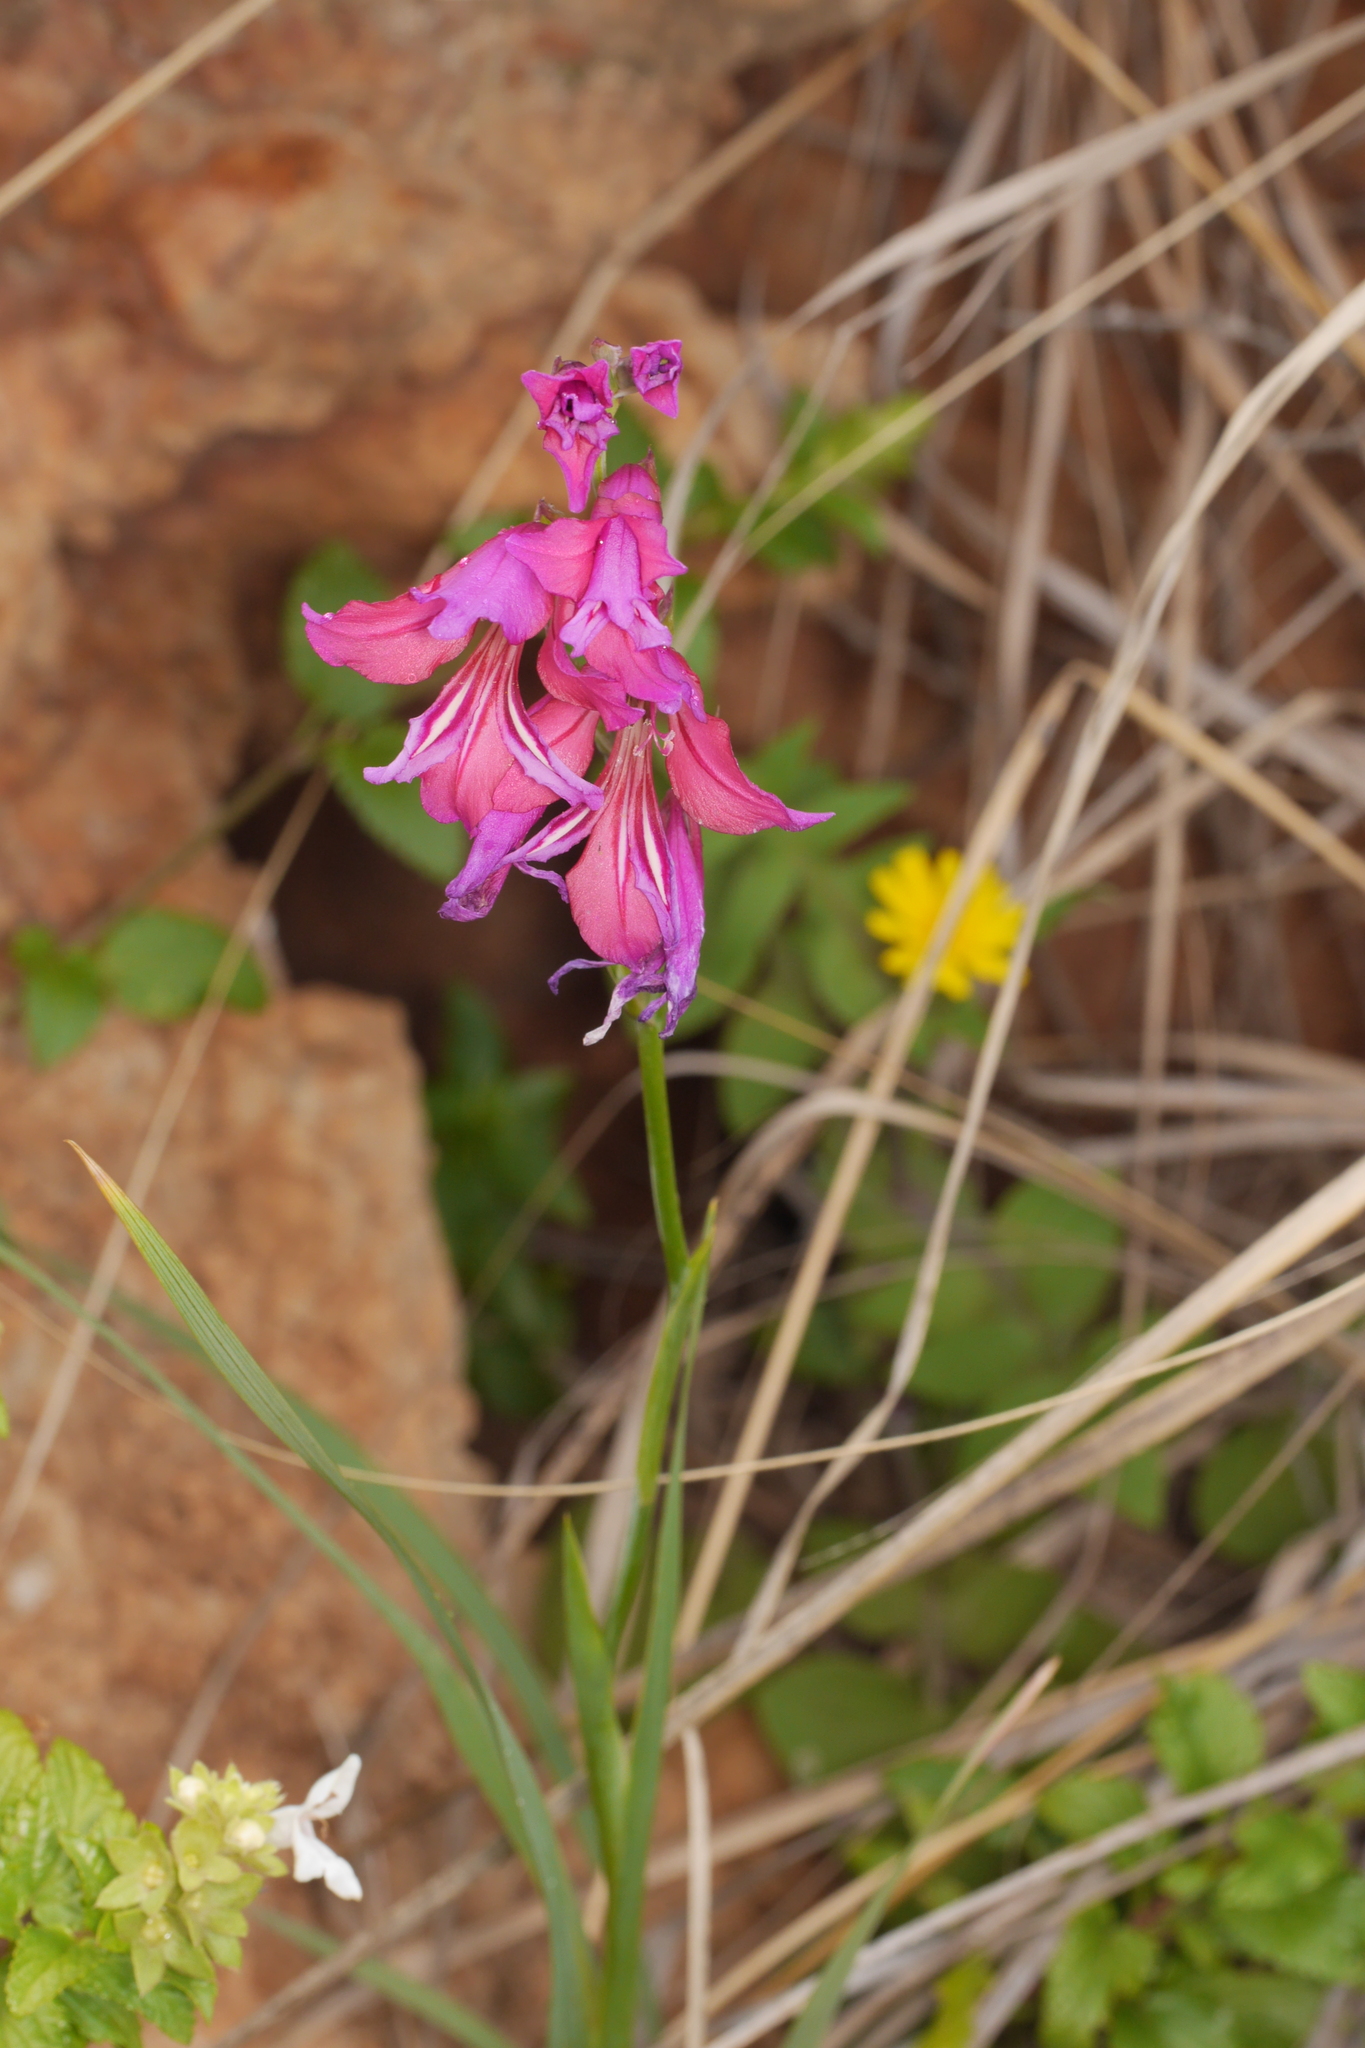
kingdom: Plantae
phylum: Tracheophyta
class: Liliopsida
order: Asparagales
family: Iridaceae
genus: Gladiolus
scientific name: Gladiolus italicus
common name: Field gladiolus
